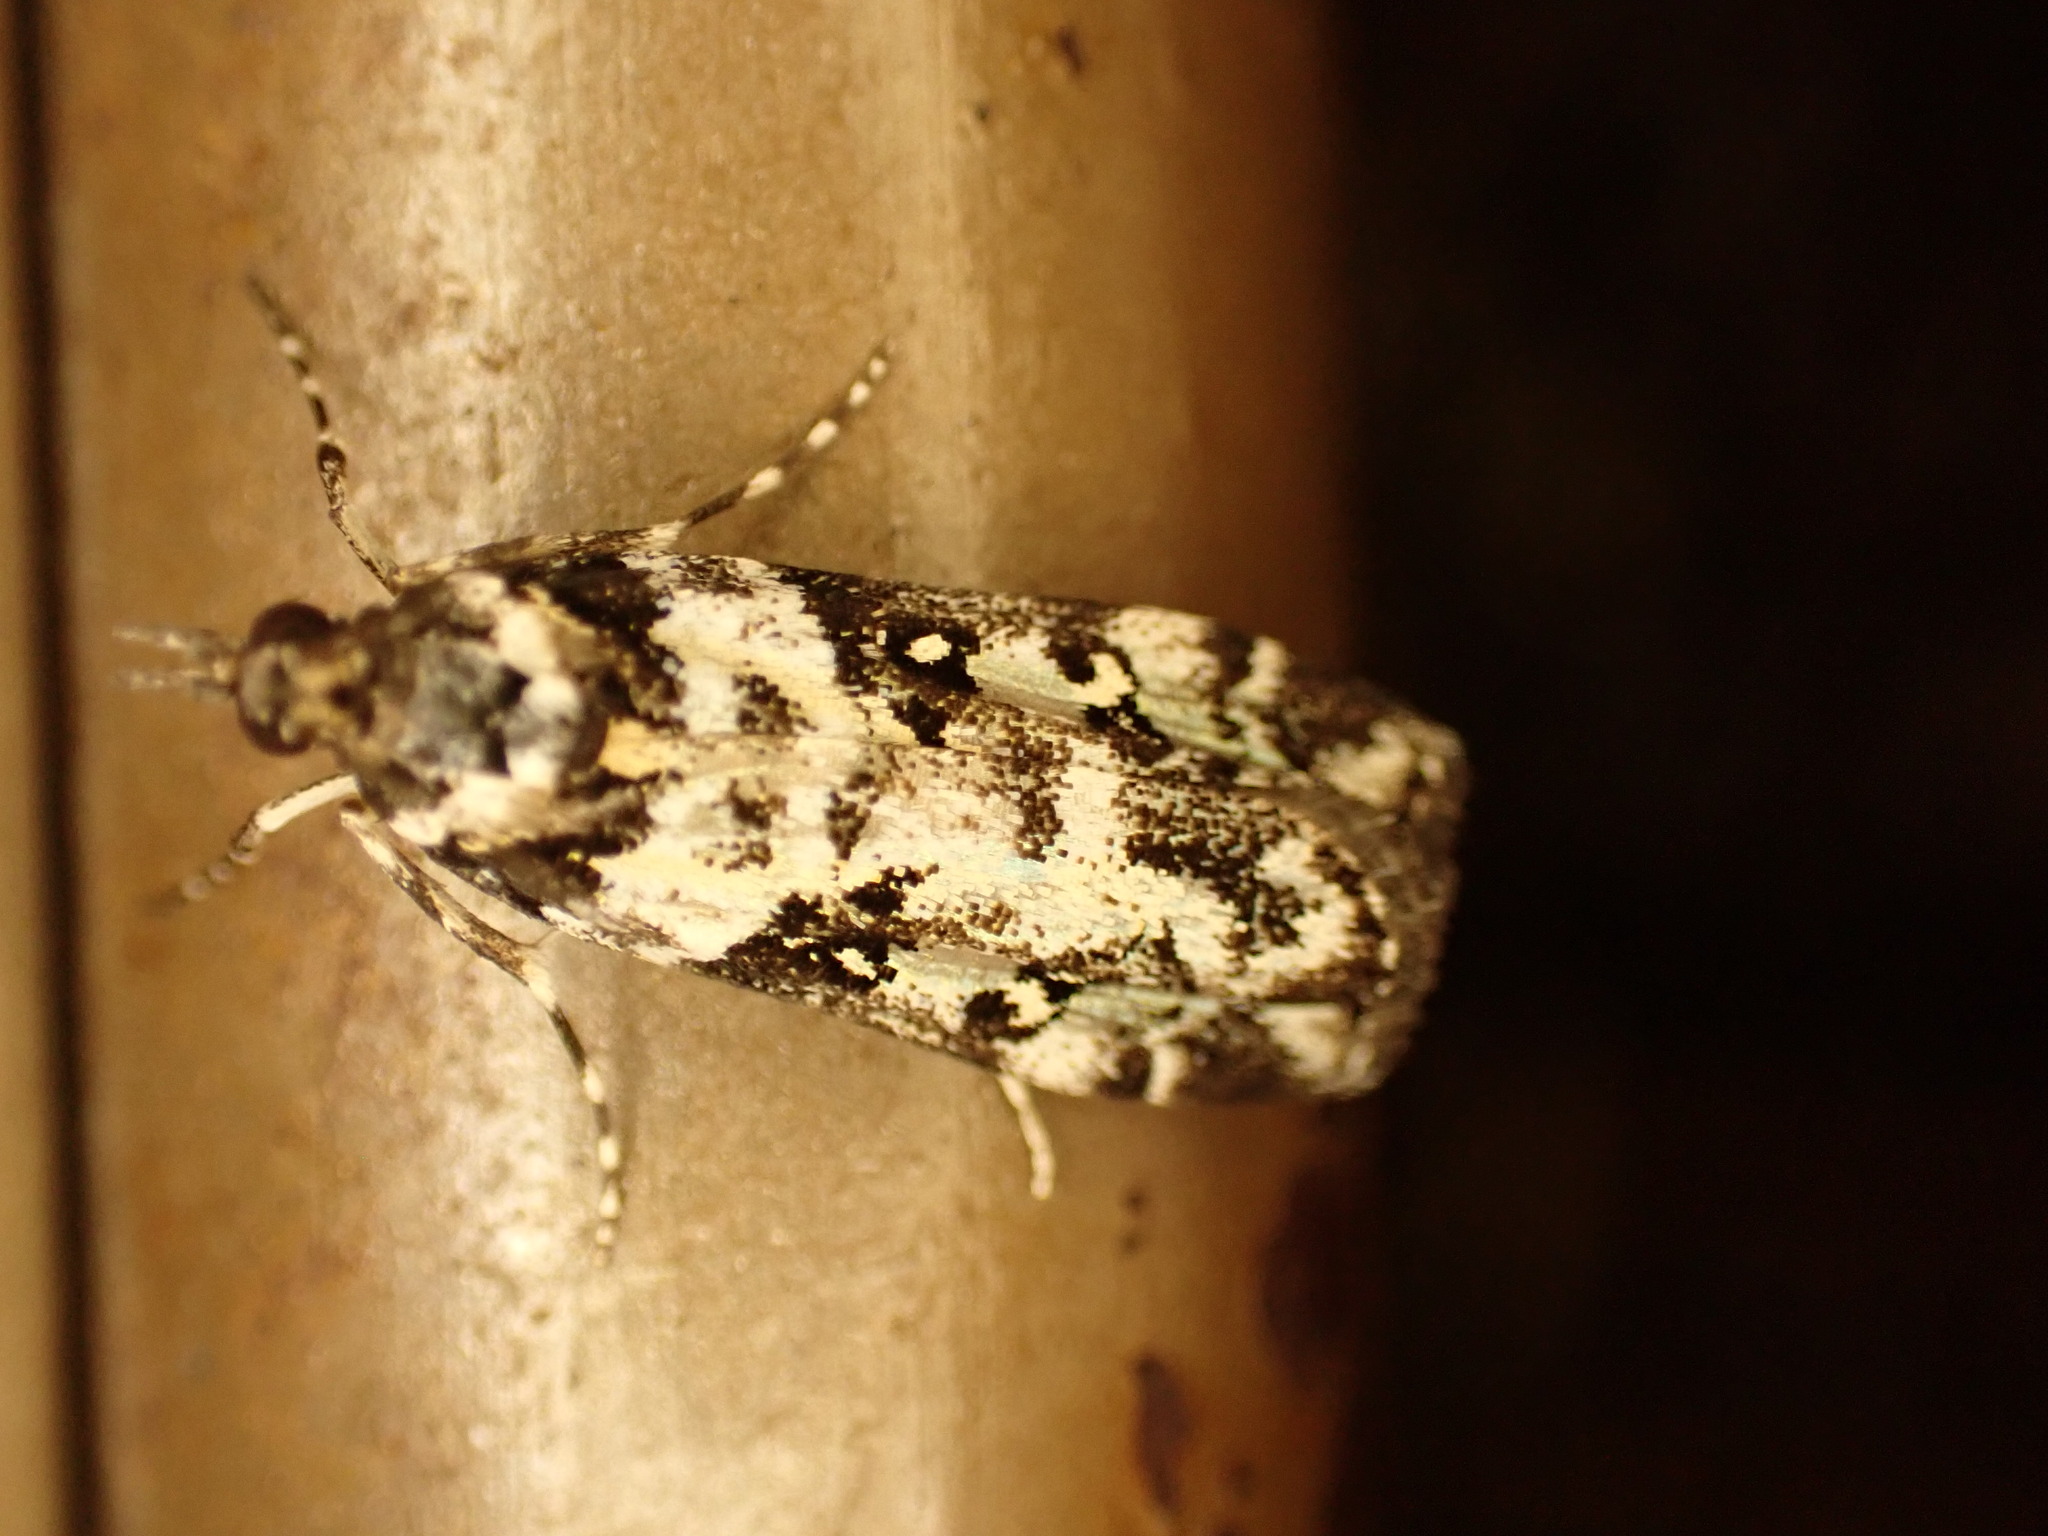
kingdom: Animalia
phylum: Arthropoda
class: Insecta
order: Lepidoptera
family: Crambidae
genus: Eudonia
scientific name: Eudonia diphtheralis
